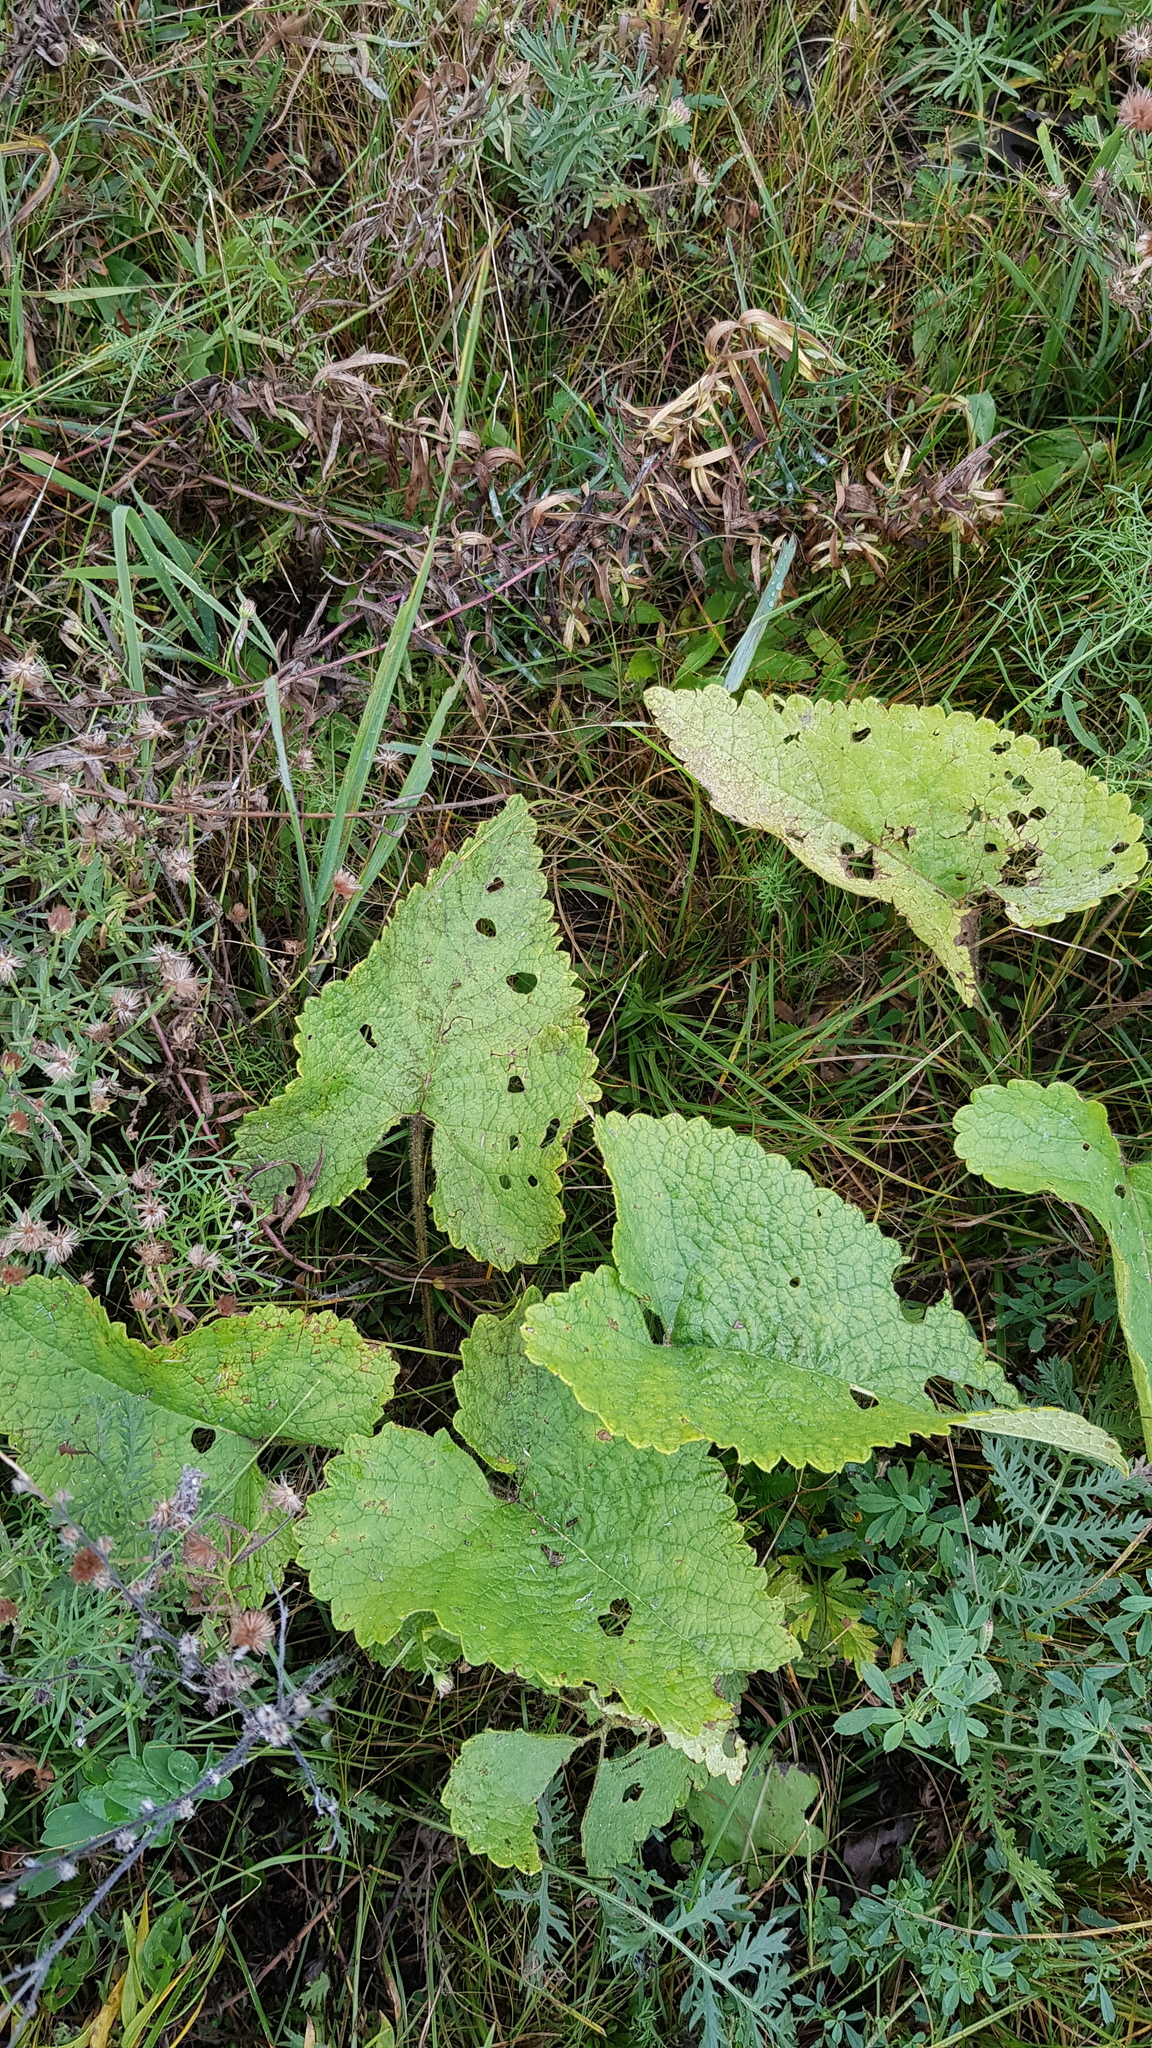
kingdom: Plantae
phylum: Tracheophyta
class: Magnoliopsida
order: Lamiales
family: Lamiaceae
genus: Phlomoides
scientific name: Phlomoides tuberosa
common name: Tuberous jerusalem sage
